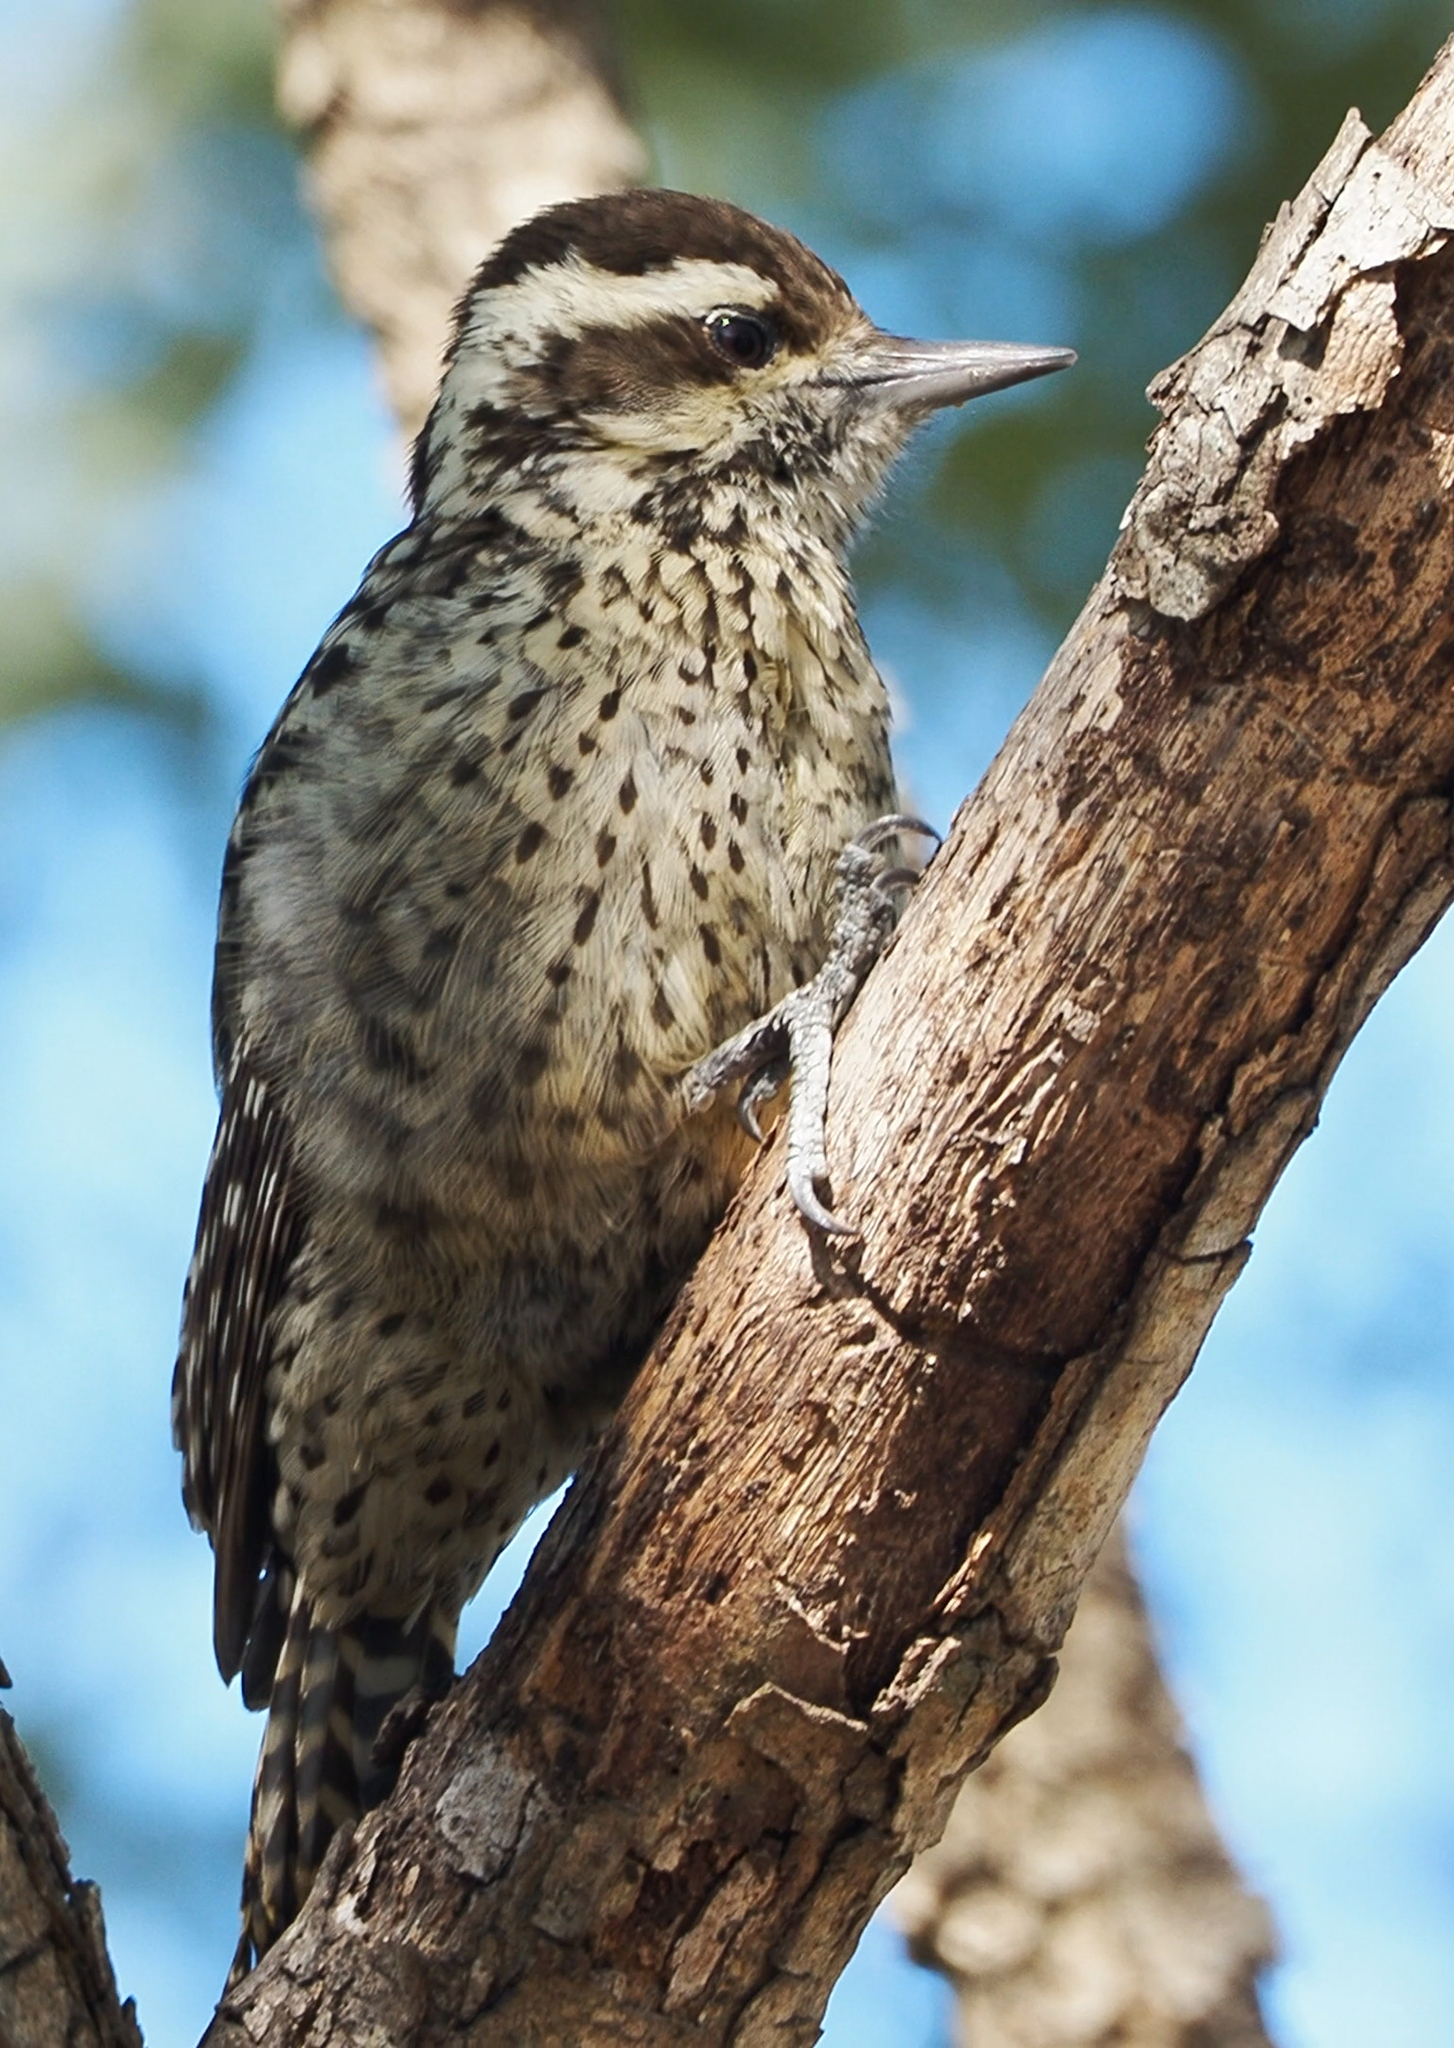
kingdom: Animalia
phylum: Chordata
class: Aves
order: Piciformes
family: Picidae
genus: Veniliornis
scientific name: Veniliornis mixtus
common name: Checkered woodpecker
